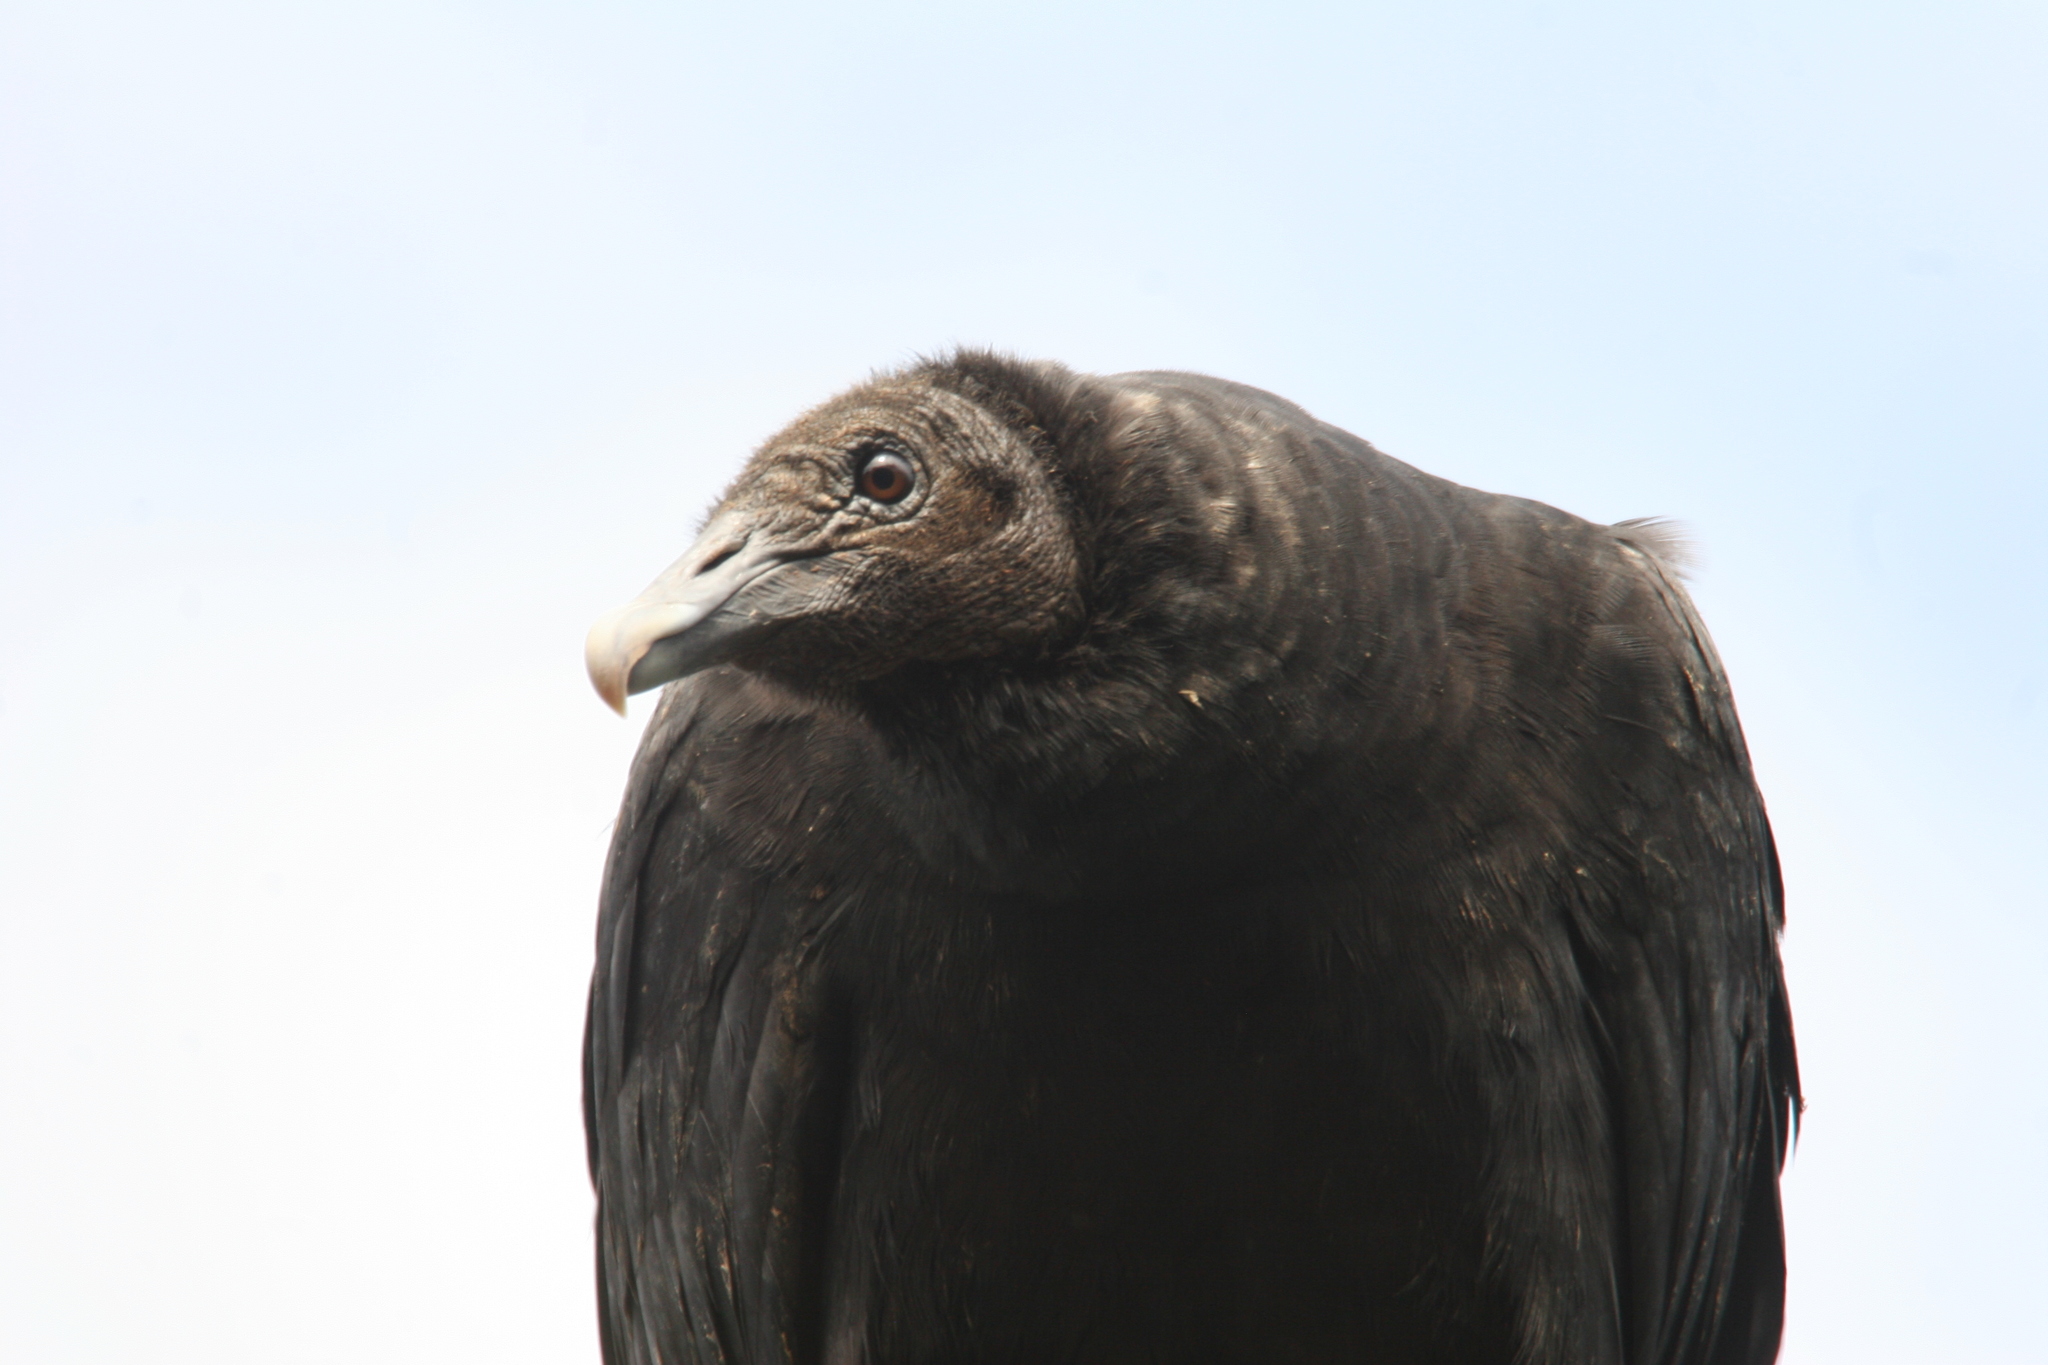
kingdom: Animalia
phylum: Chordata
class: Aves
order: Accipitriformes
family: Cathartidae
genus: Coragyps
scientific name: Coragyps atratus
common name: Black vulture
